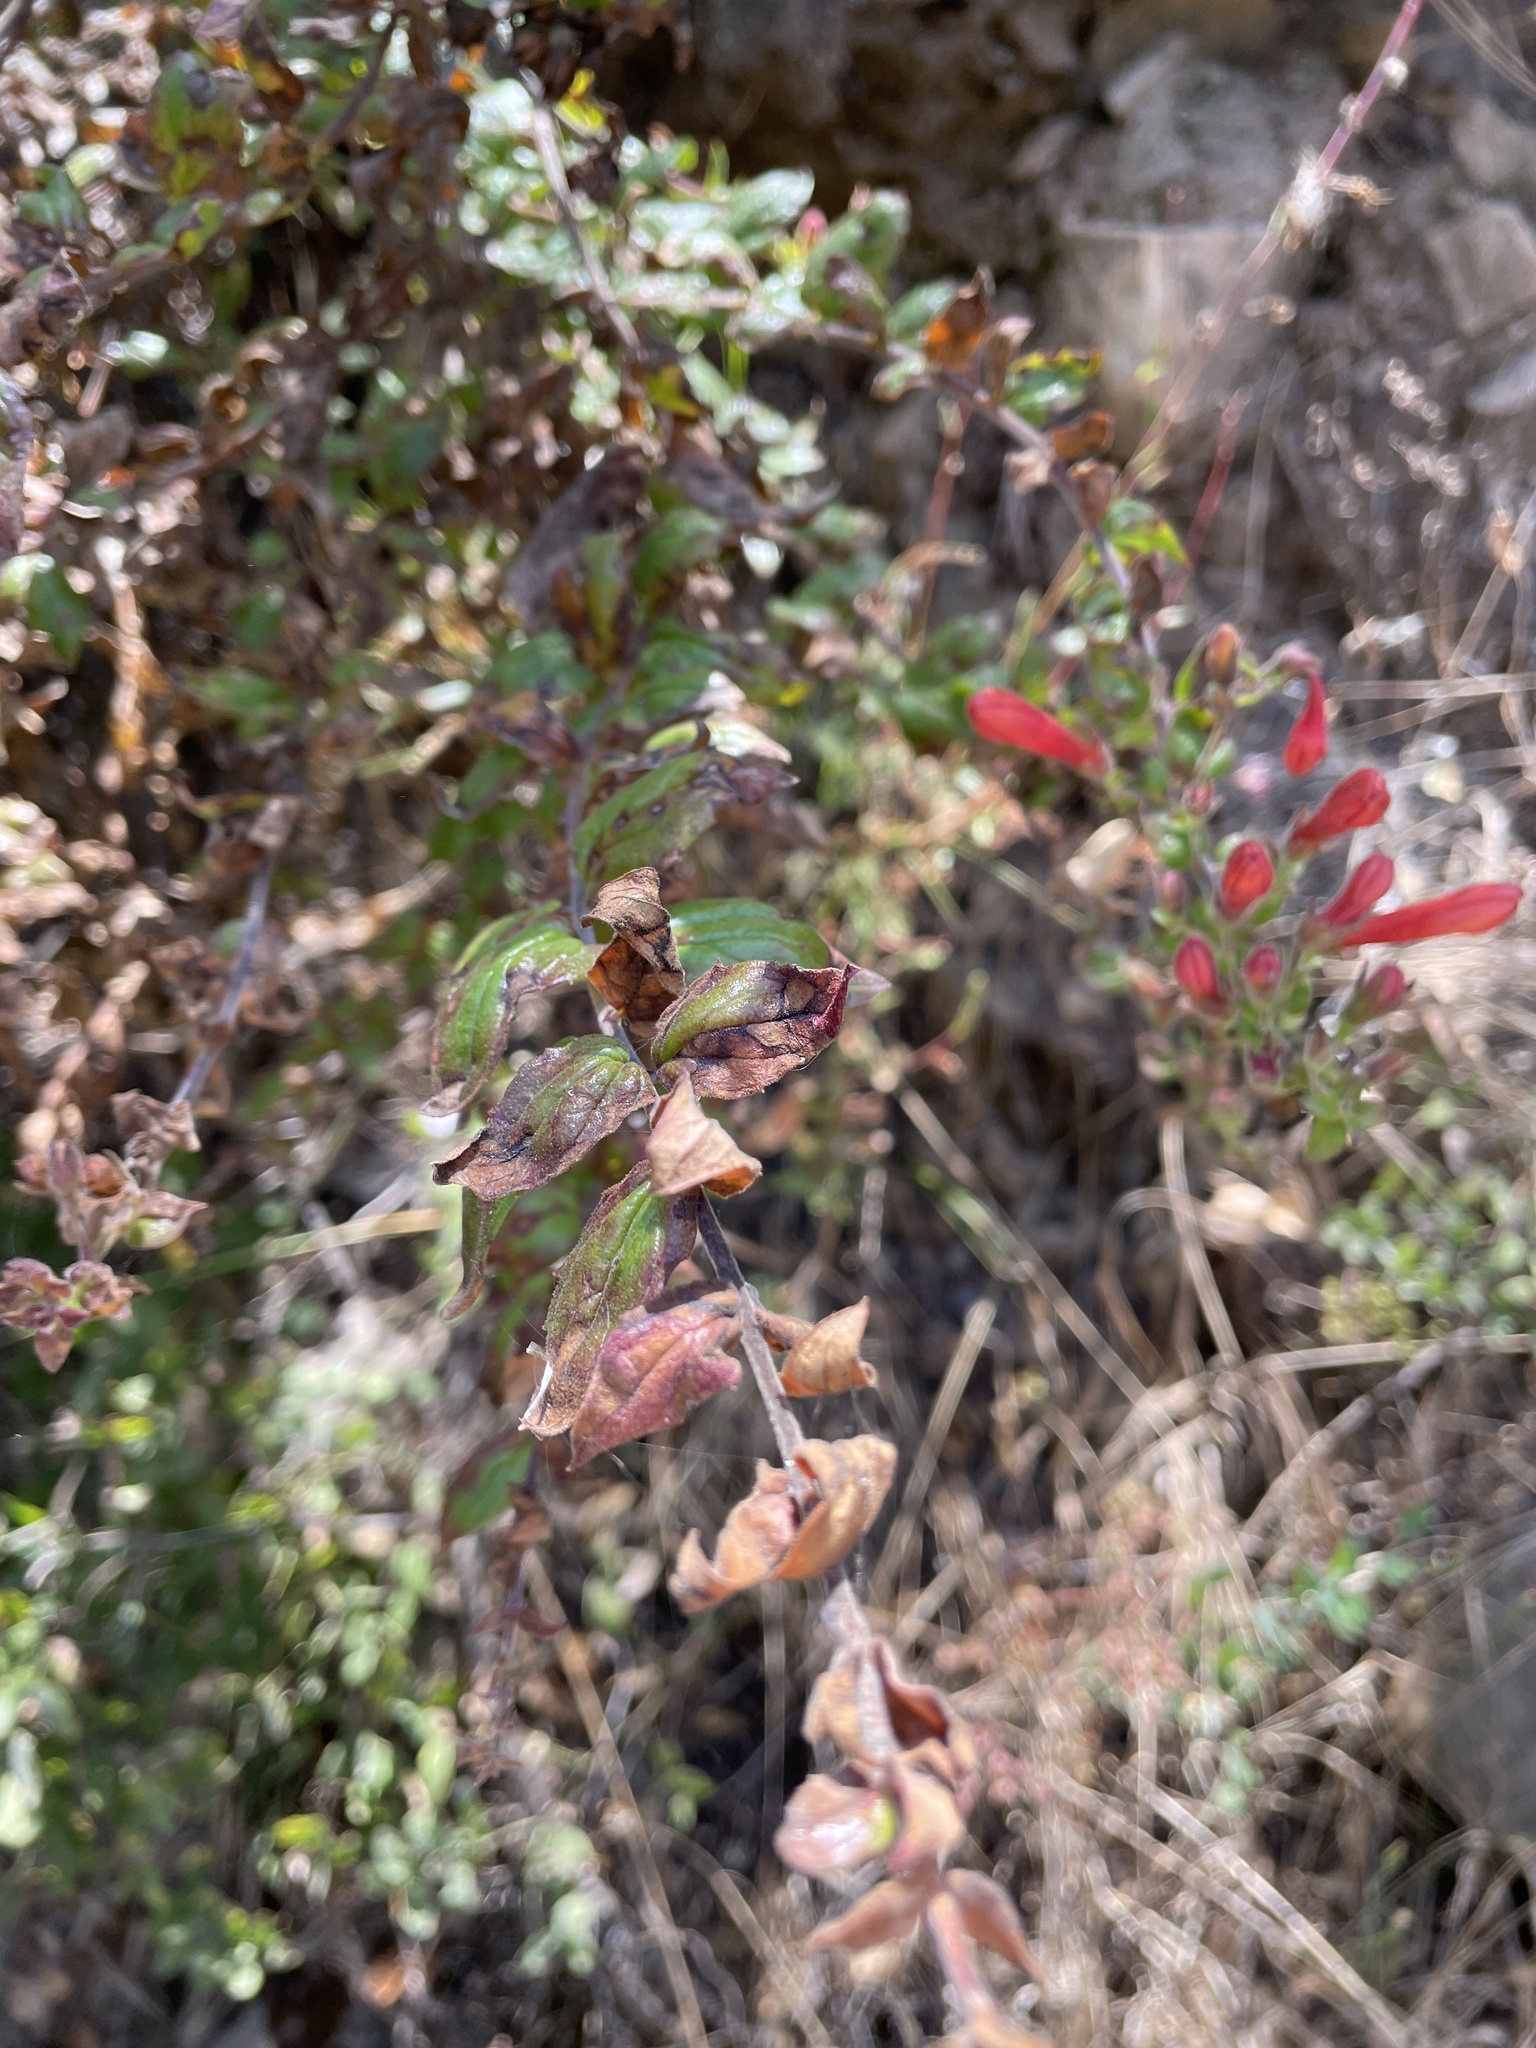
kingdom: Plantae
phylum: Tracheophyta
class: Magnoliopsida
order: Lamiales
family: Plantaginaceae
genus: Keckiella
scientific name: Keckiella cordifolia
